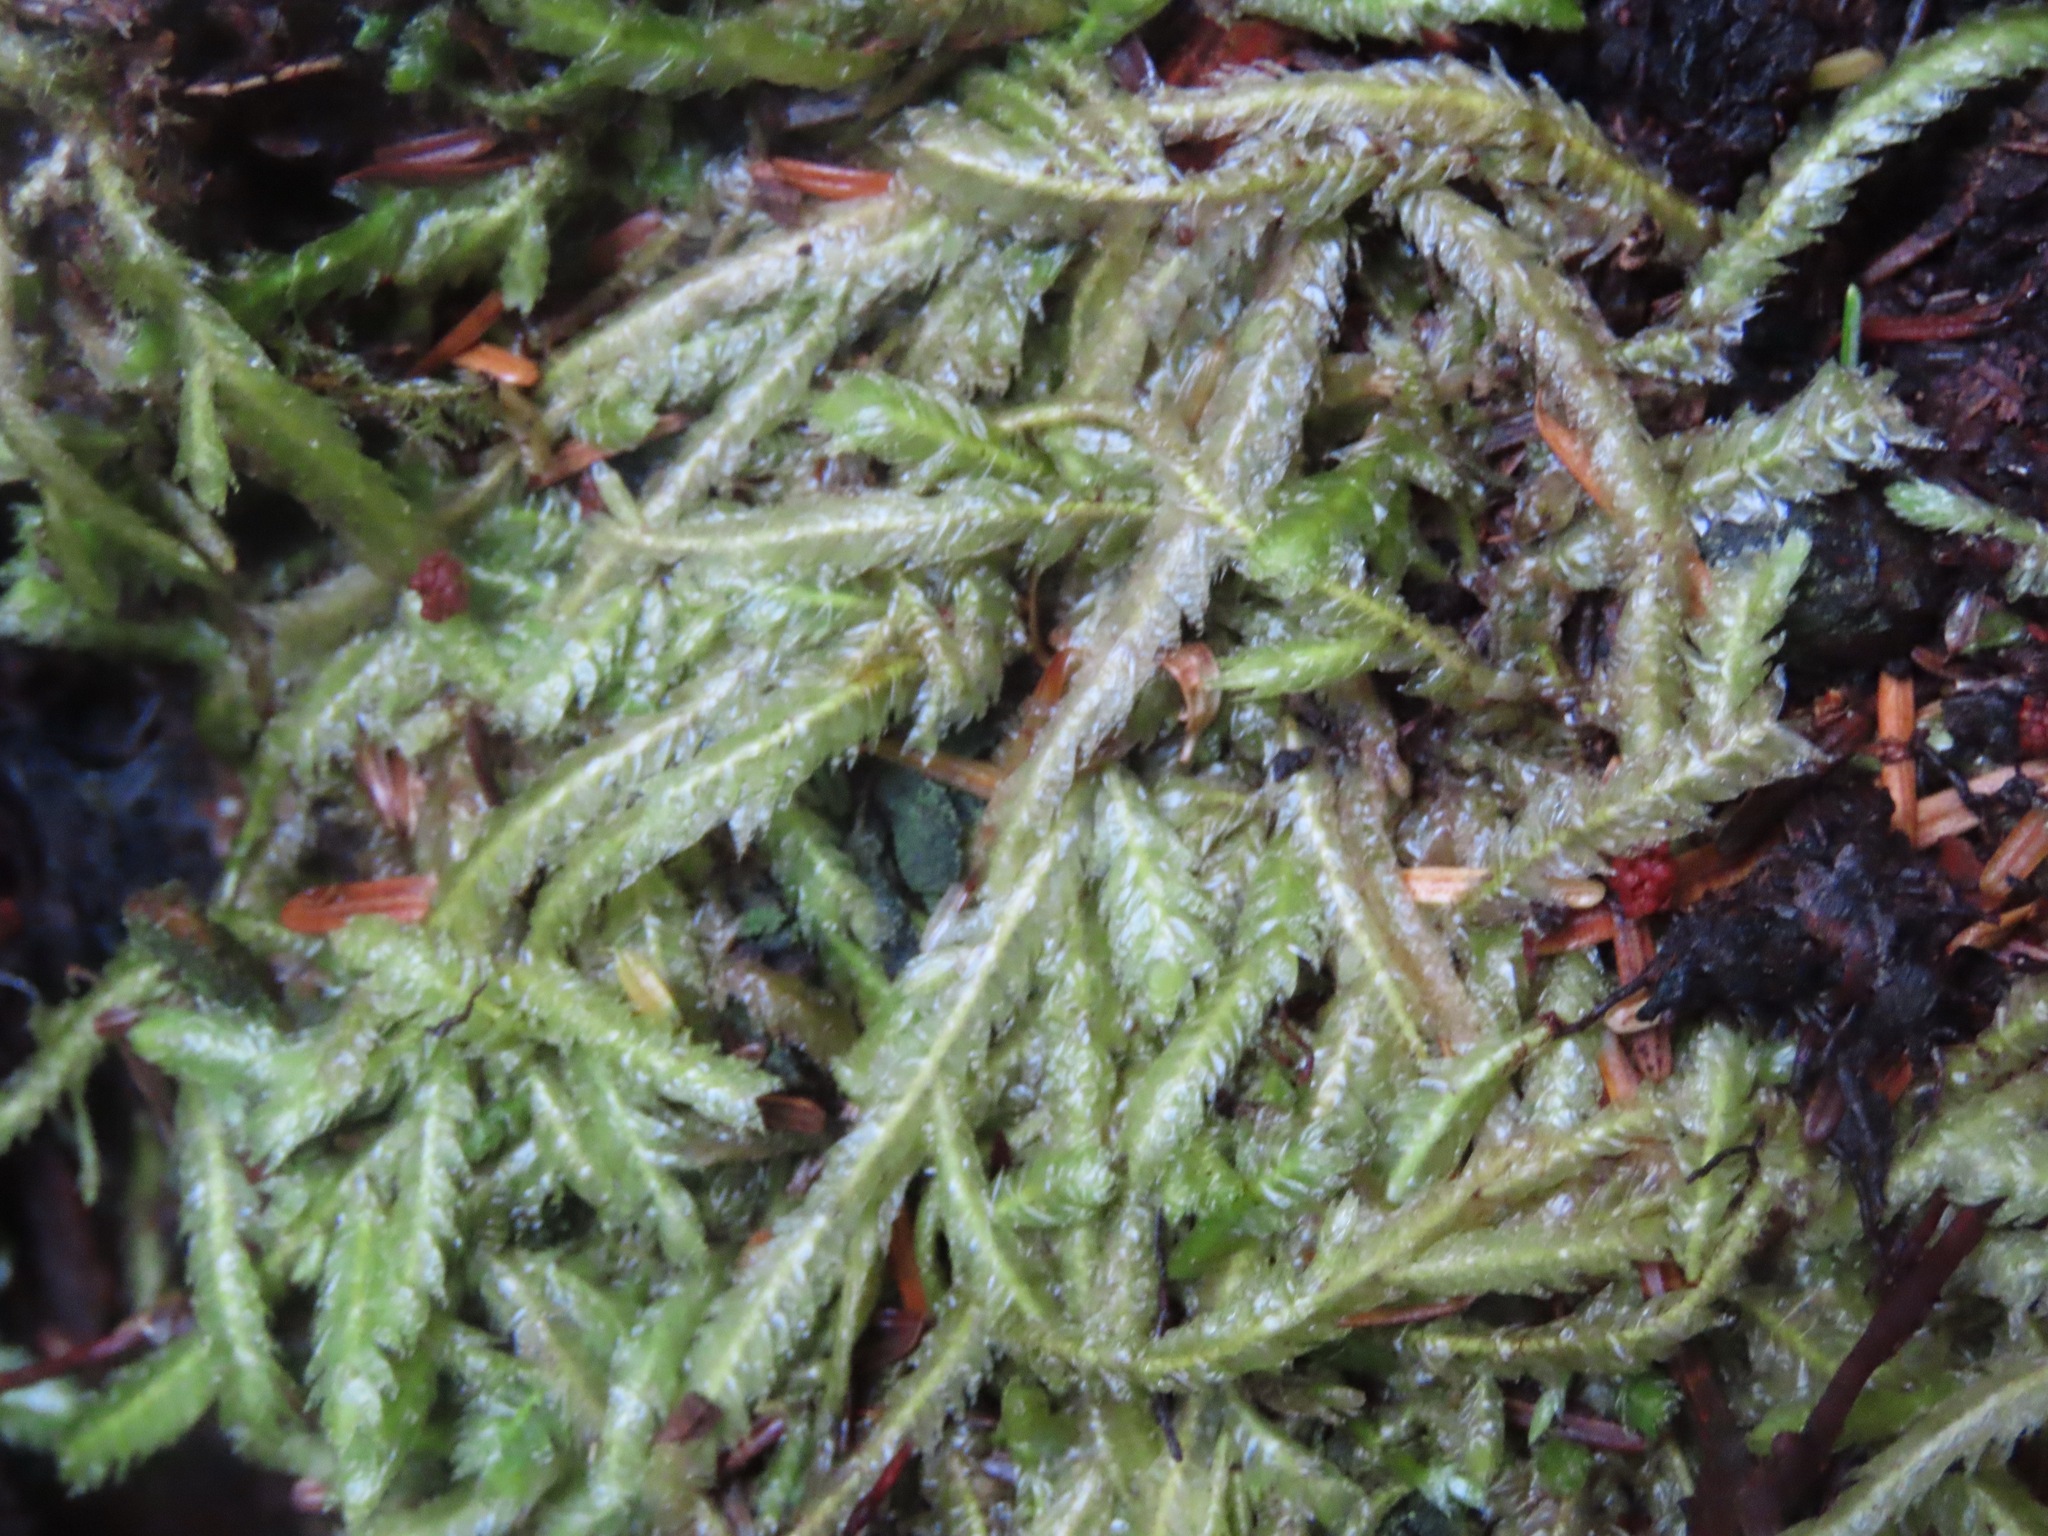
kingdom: Plantae
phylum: Bryophyta
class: Bryopsida
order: Hypnales
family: Plagiotheciaceae
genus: Plagiothecium
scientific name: Plagiothecium undulatum
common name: Waved silk-moss
